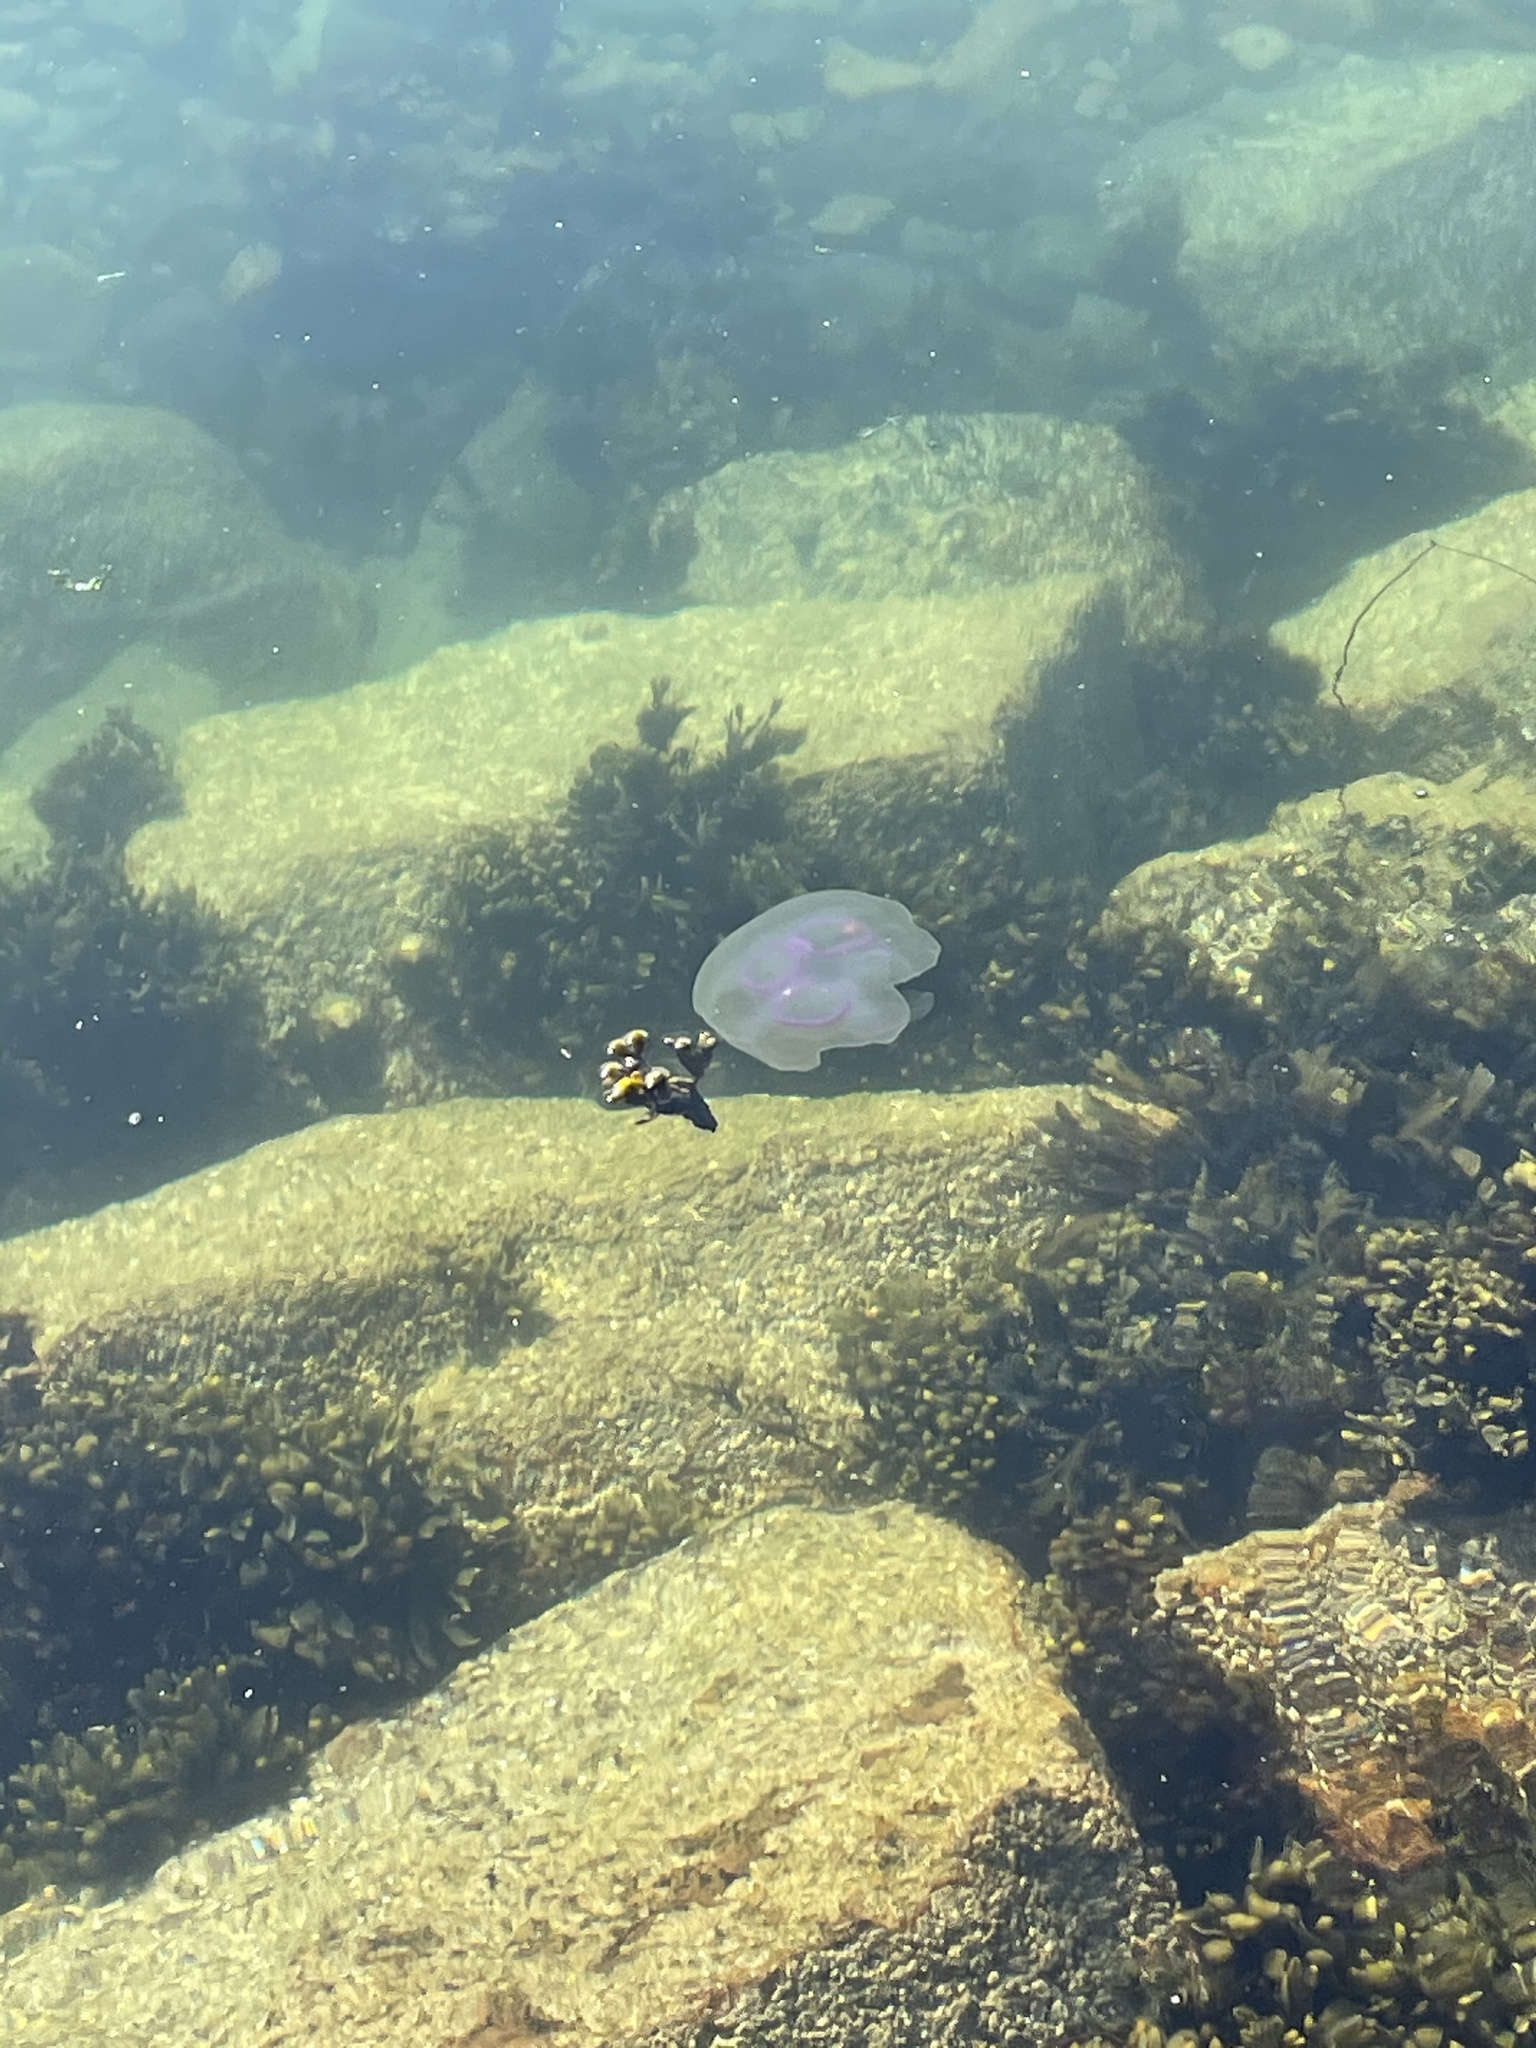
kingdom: Animalia
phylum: Cnidaria
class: Scyphozoa
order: Semaeostomeae
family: Ulmaridae
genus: Aurelia
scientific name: Aurelia aurita
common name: Moon jellyfish
